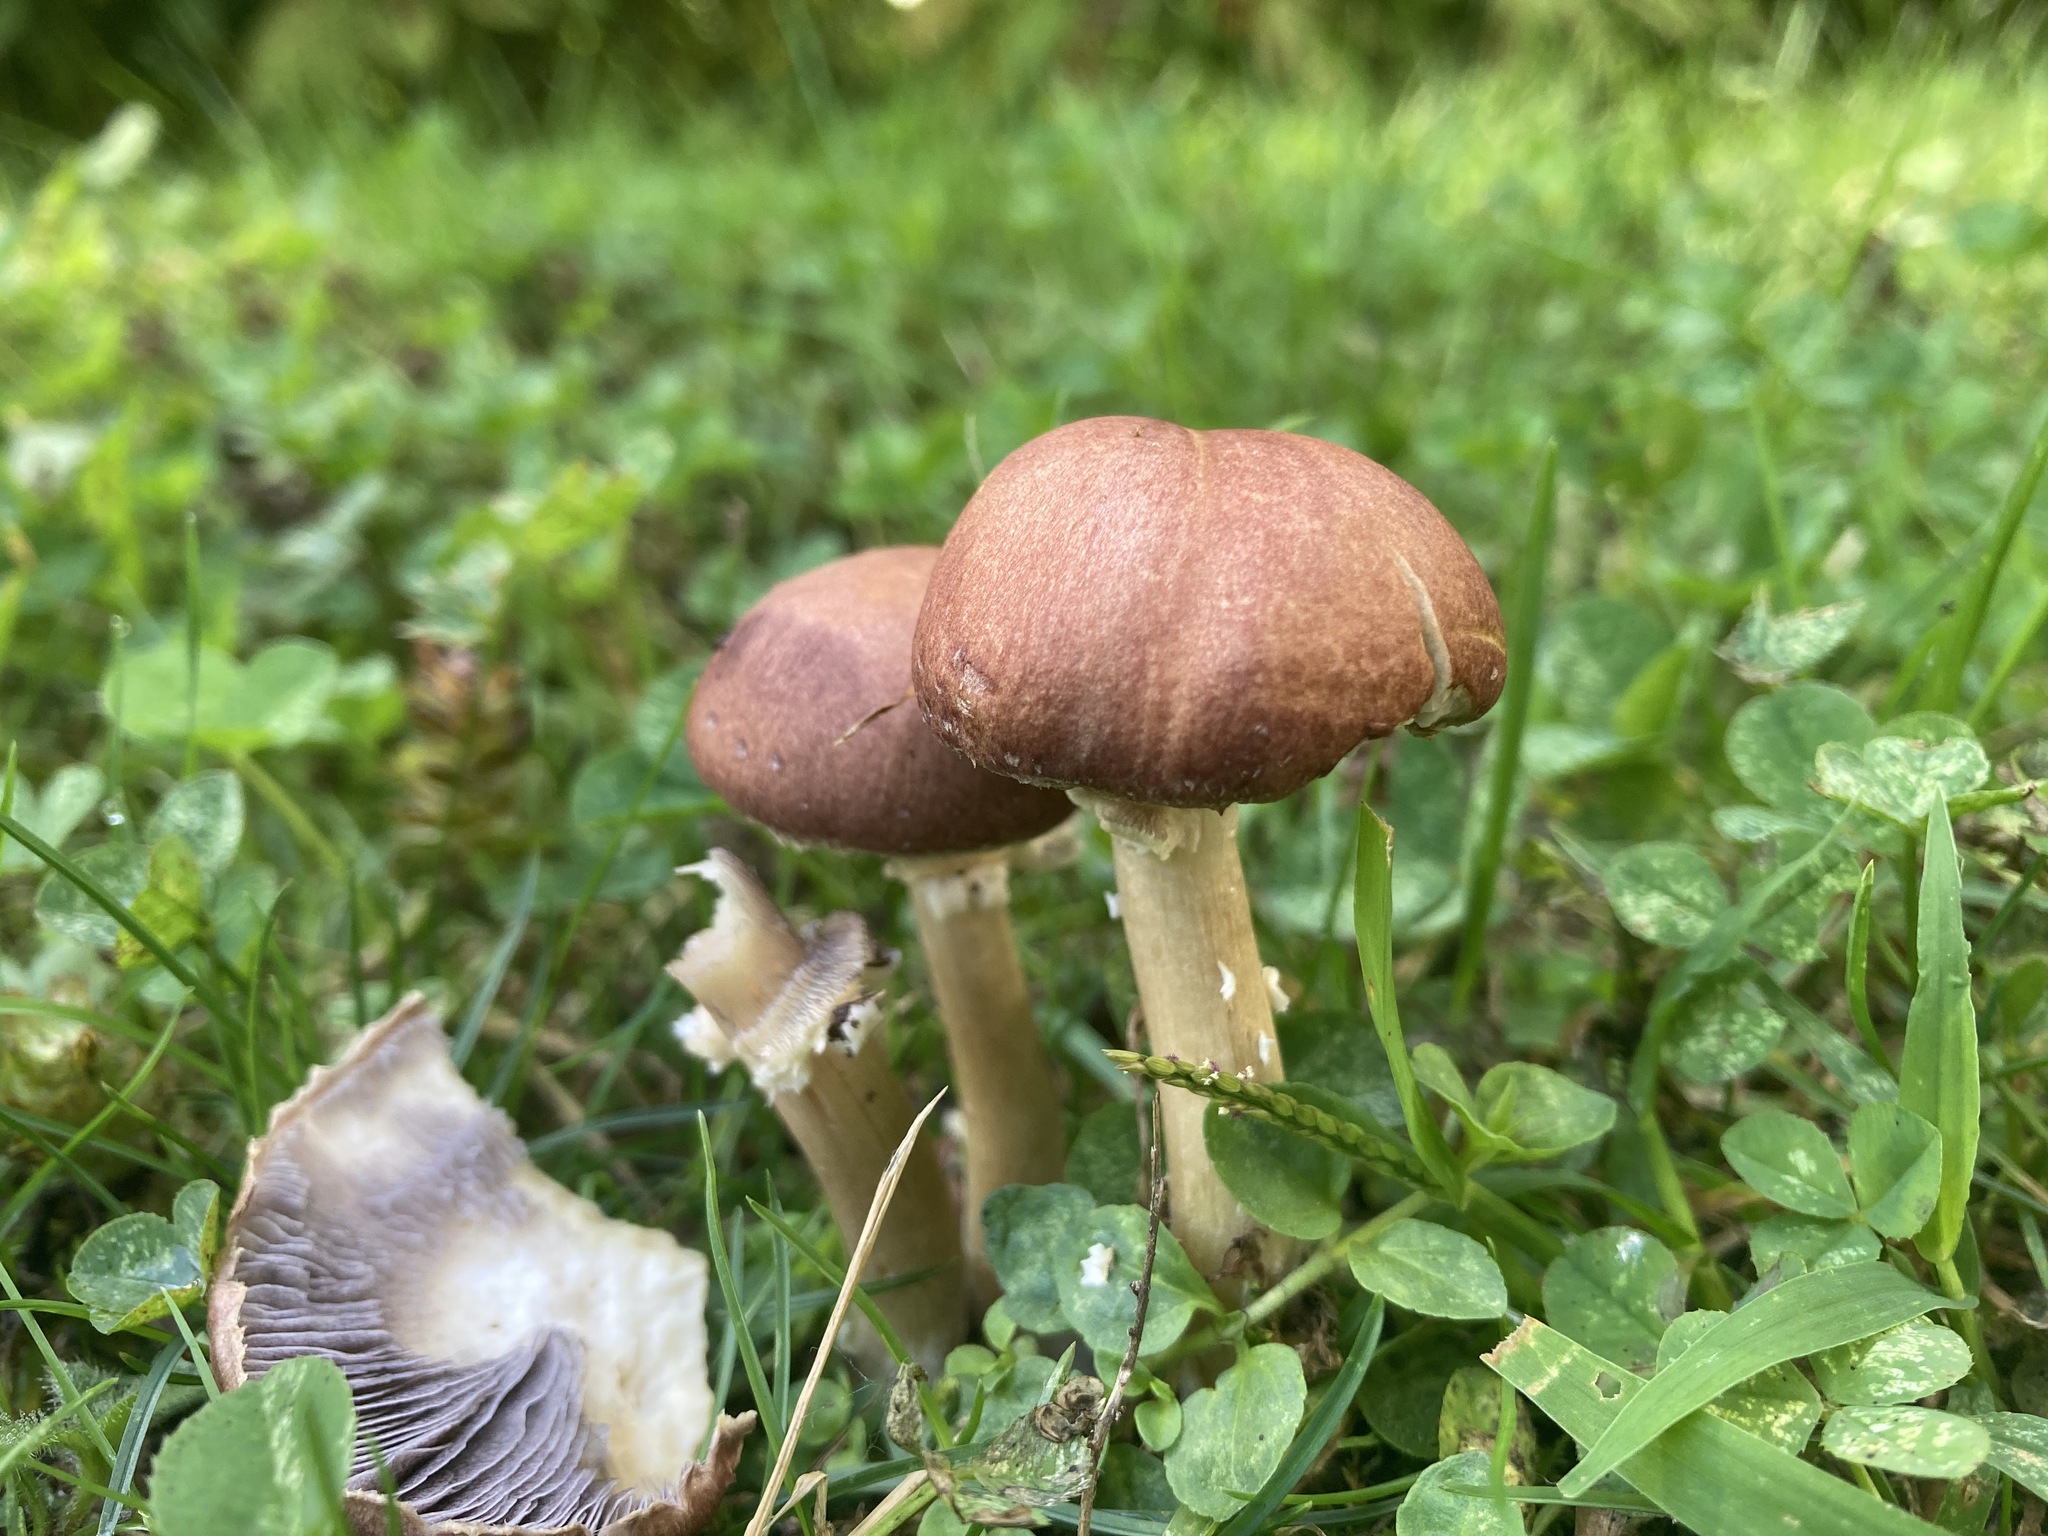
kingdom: Fungi
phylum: Basidiomycota
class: Agaricomycetes
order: Agaricales
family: Strophariaceae
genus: Stropharia
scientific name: Stropharia rugosoannulata
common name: Wine roundhead
